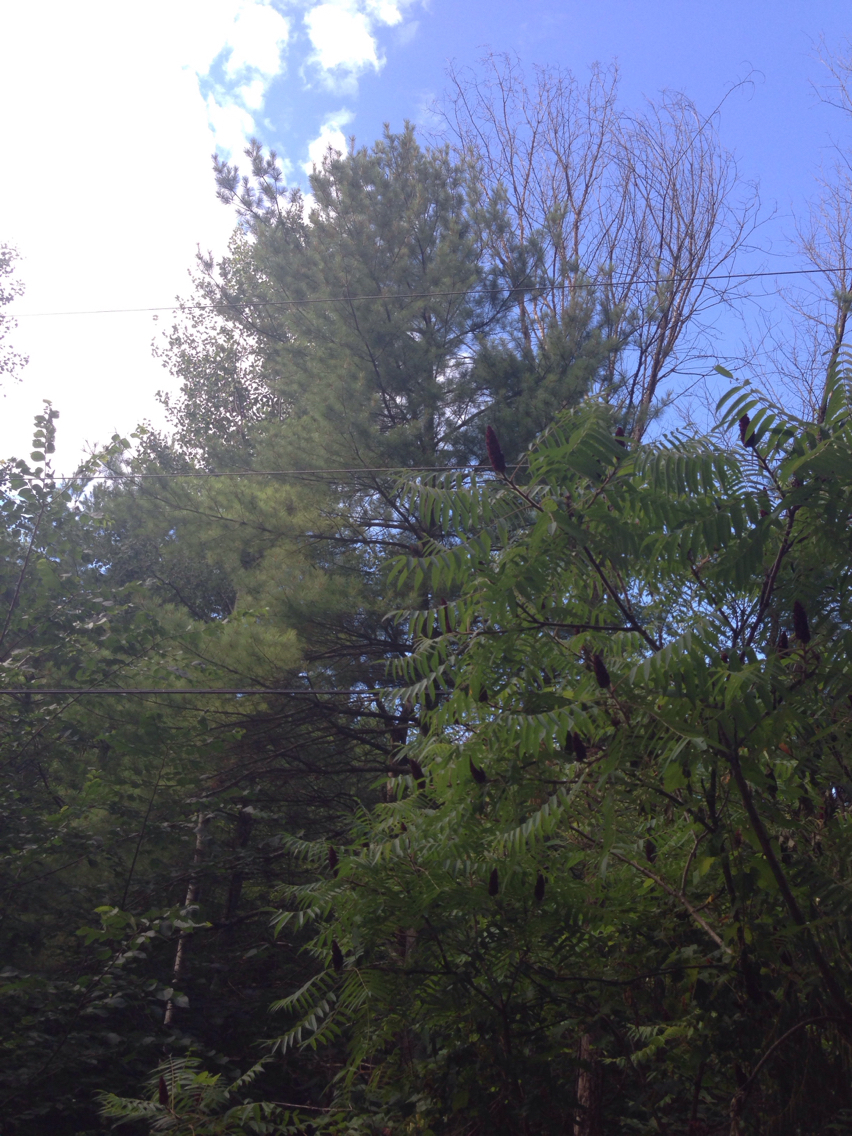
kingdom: Plantae
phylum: Tracheophyta
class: Pinopsida
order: Pinales
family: Pinaceae
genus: Pinus
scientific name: Pinus strobus
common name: Weymouth pine
